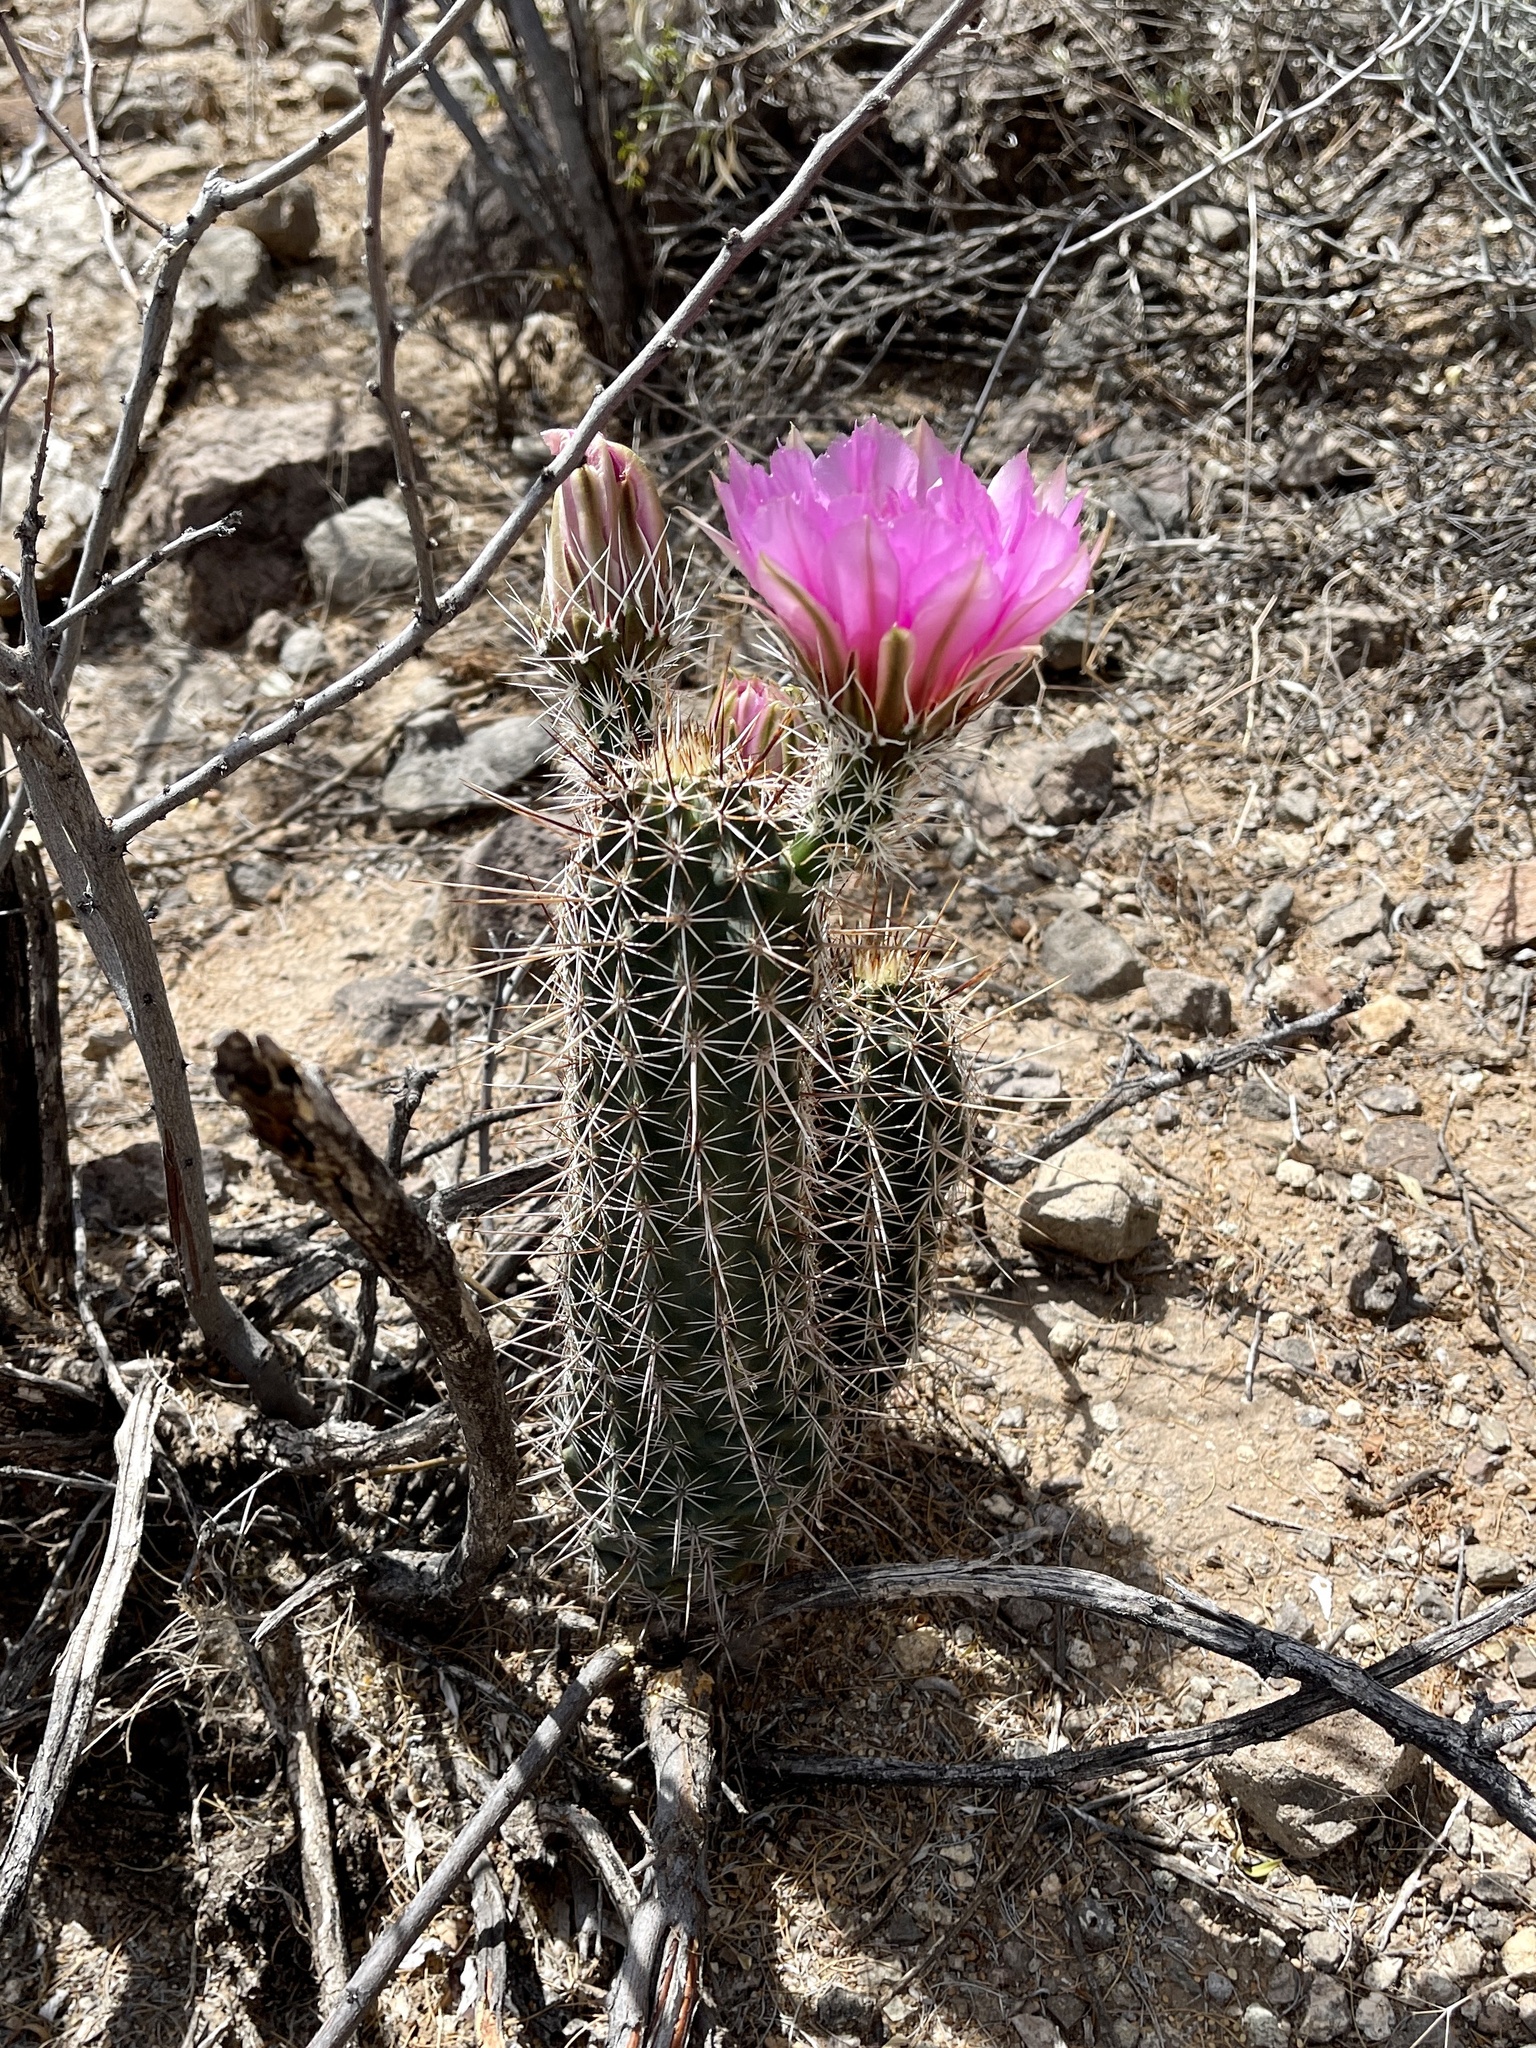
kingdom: Plantae
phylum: Tracheophyta
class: Magnoliopsida
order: Caryophyllales
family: Cactaceae
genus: Echinocereus
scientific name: Echinocereus fasciculatus
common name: Bundle hedgehog
